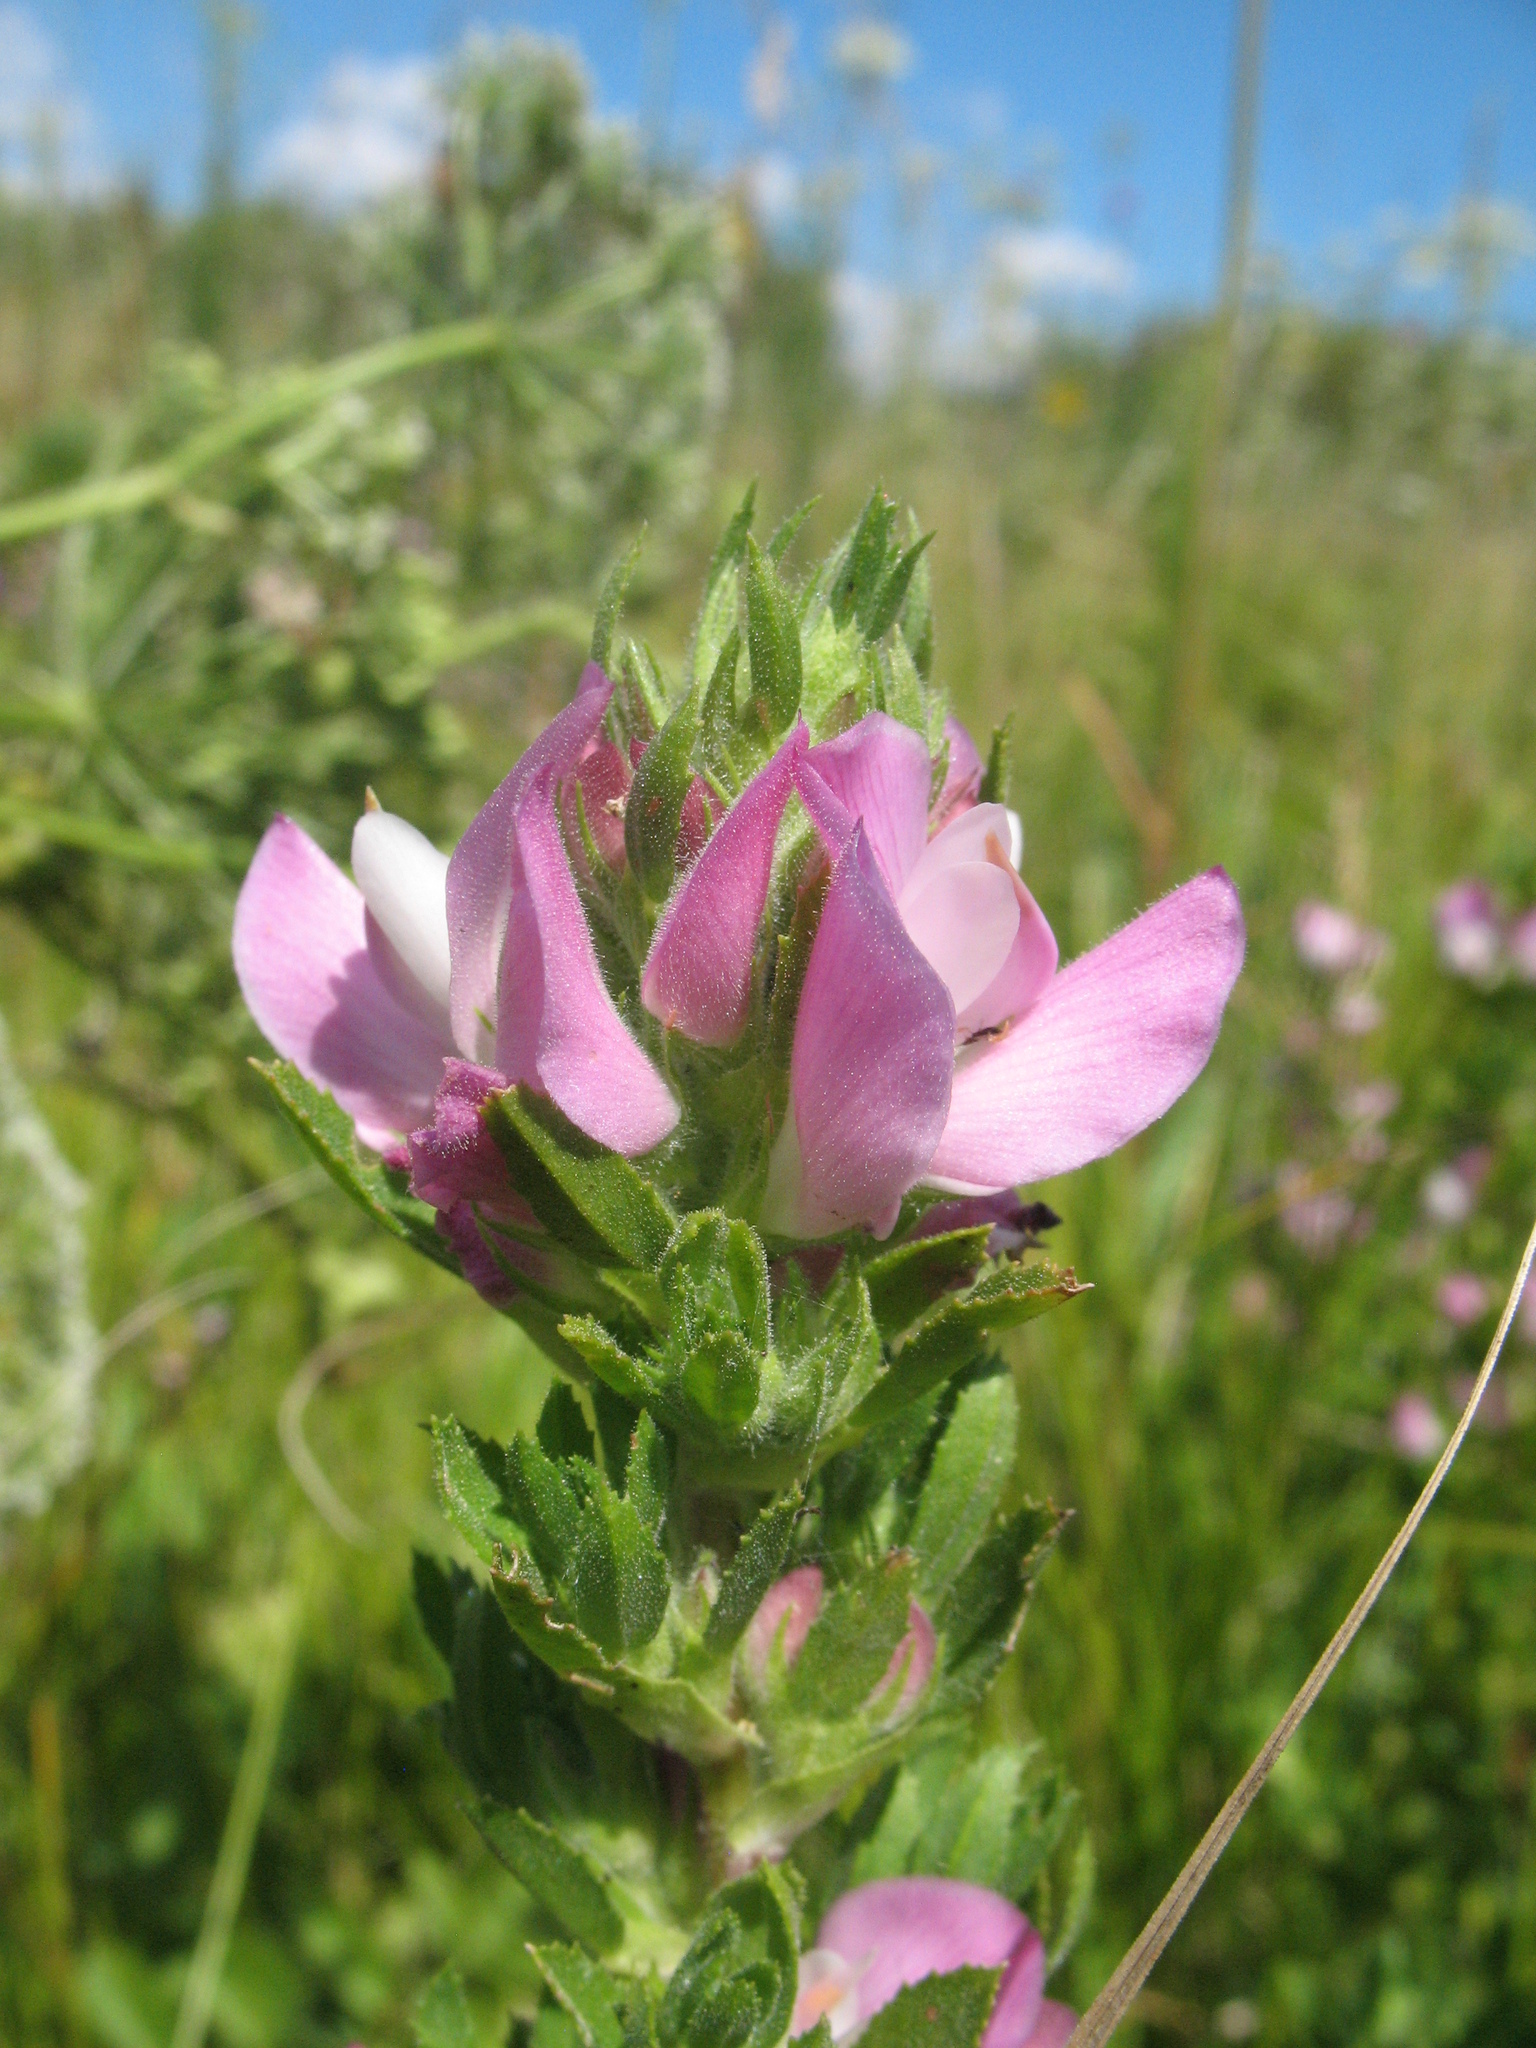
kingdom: Plantae
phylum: Tracheophyta
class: Magnoliopsida
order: Fabales
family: Fabaceae
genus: Ononis
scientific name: Ononis arvensis
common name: Field restharrow
